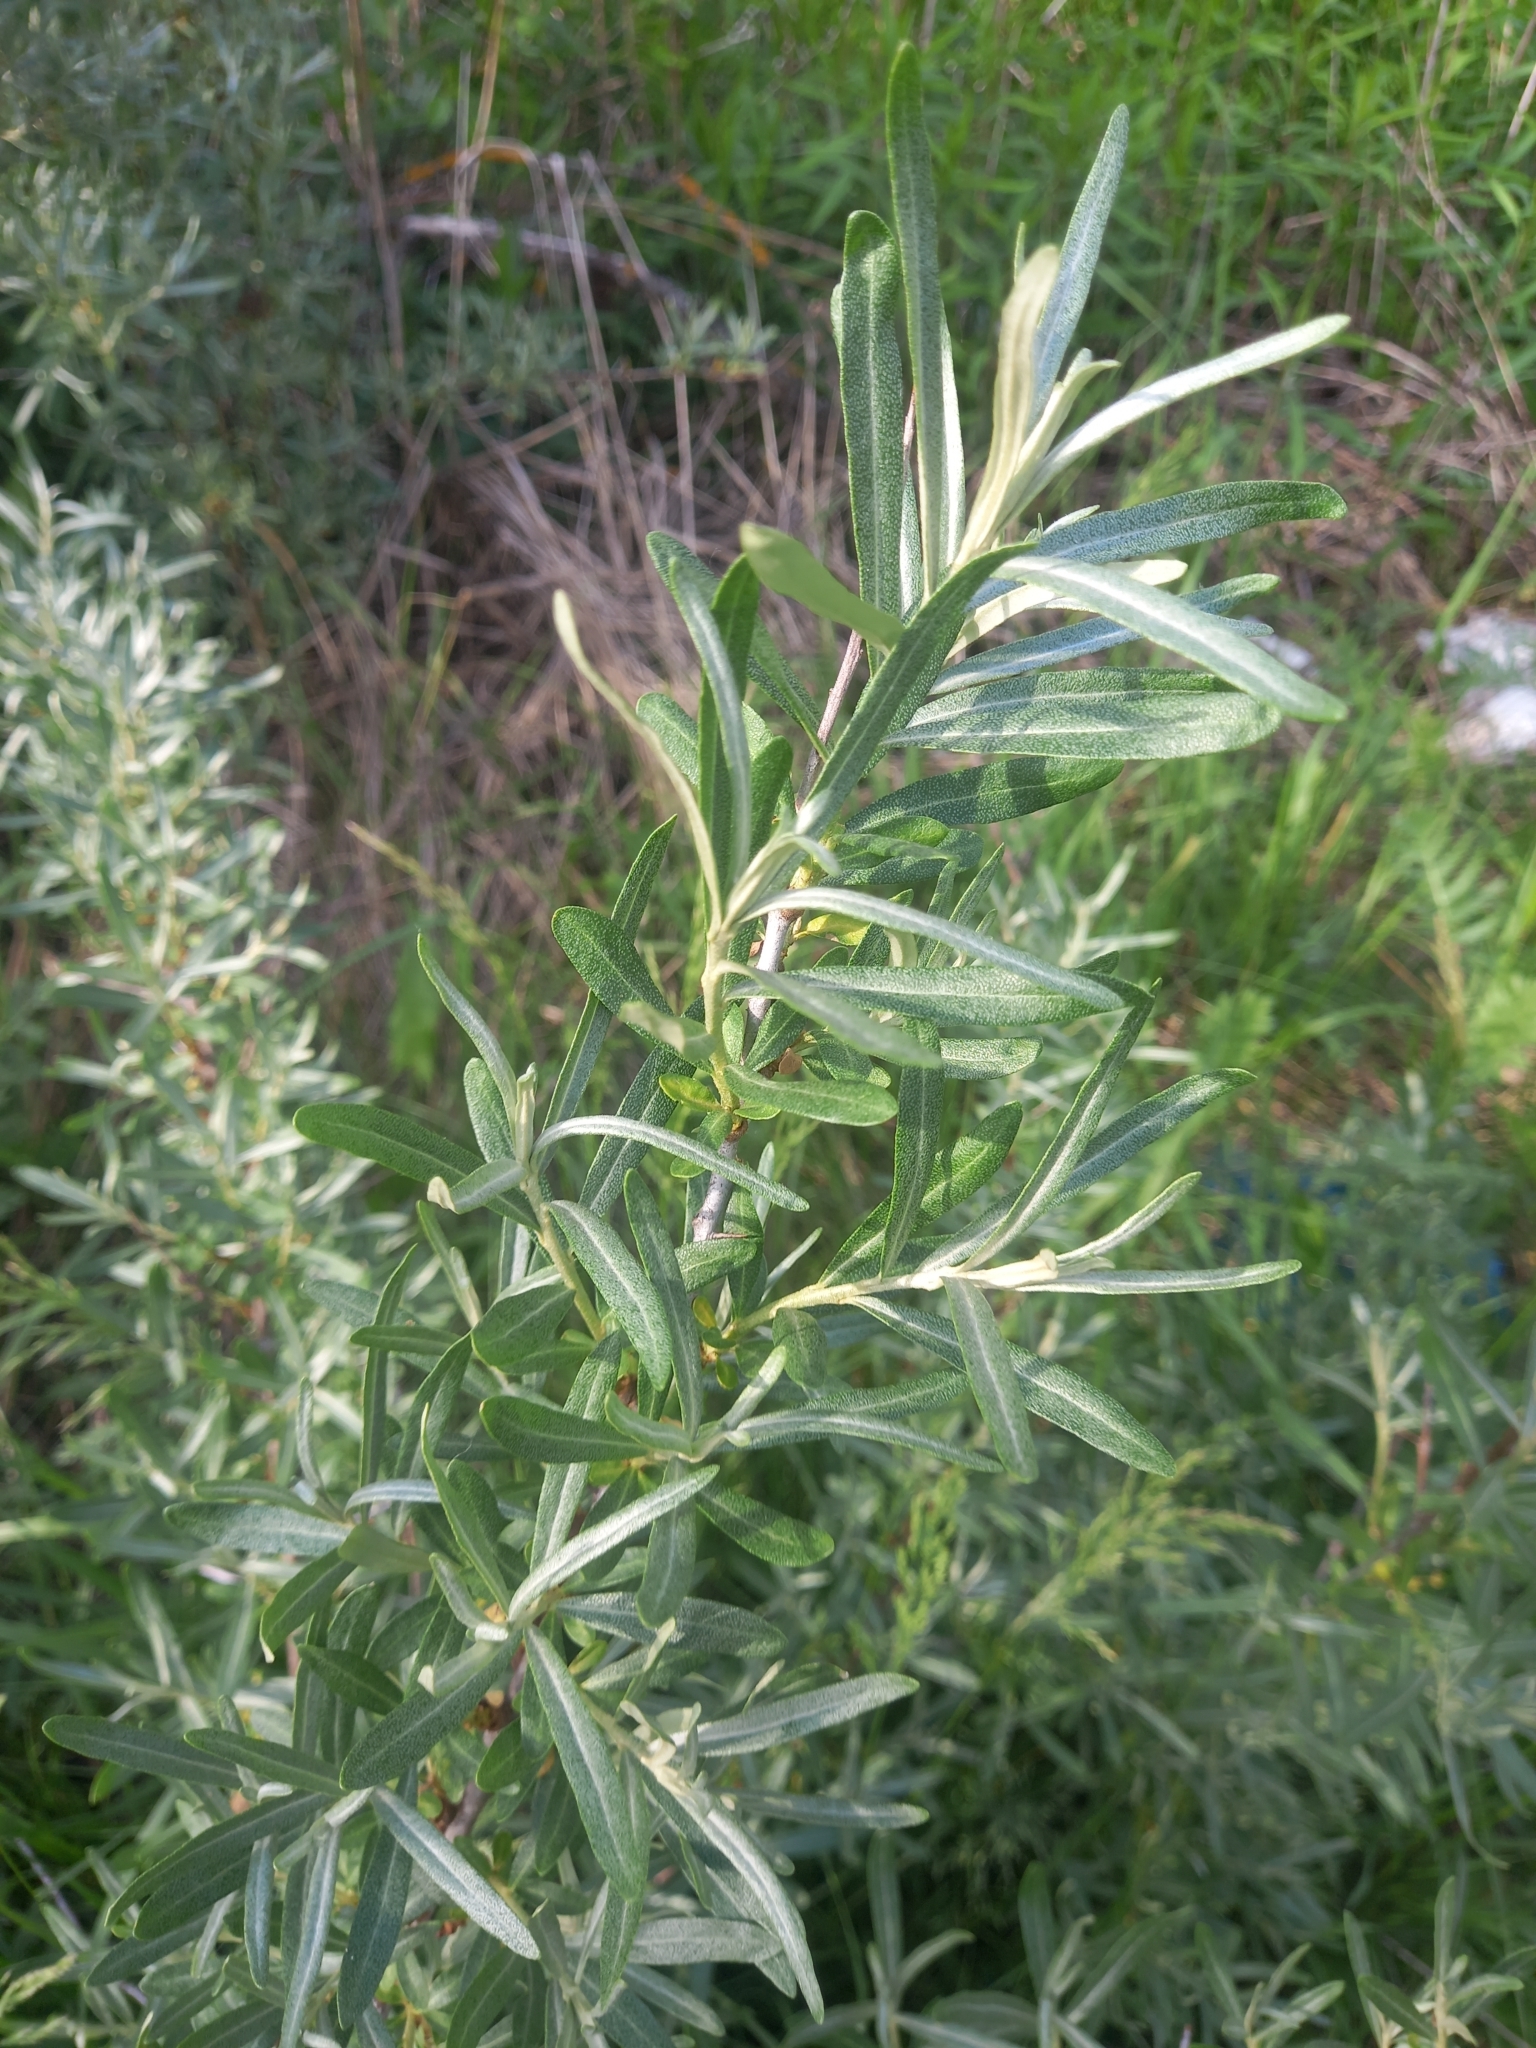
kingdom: Plantae
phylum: Tracheophyta
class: Magnoliopsida
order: Rosales
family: Elaeagnaceae
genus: Hippophae
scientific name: Hippophae rhamnoides
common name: Sea-buckthorn
